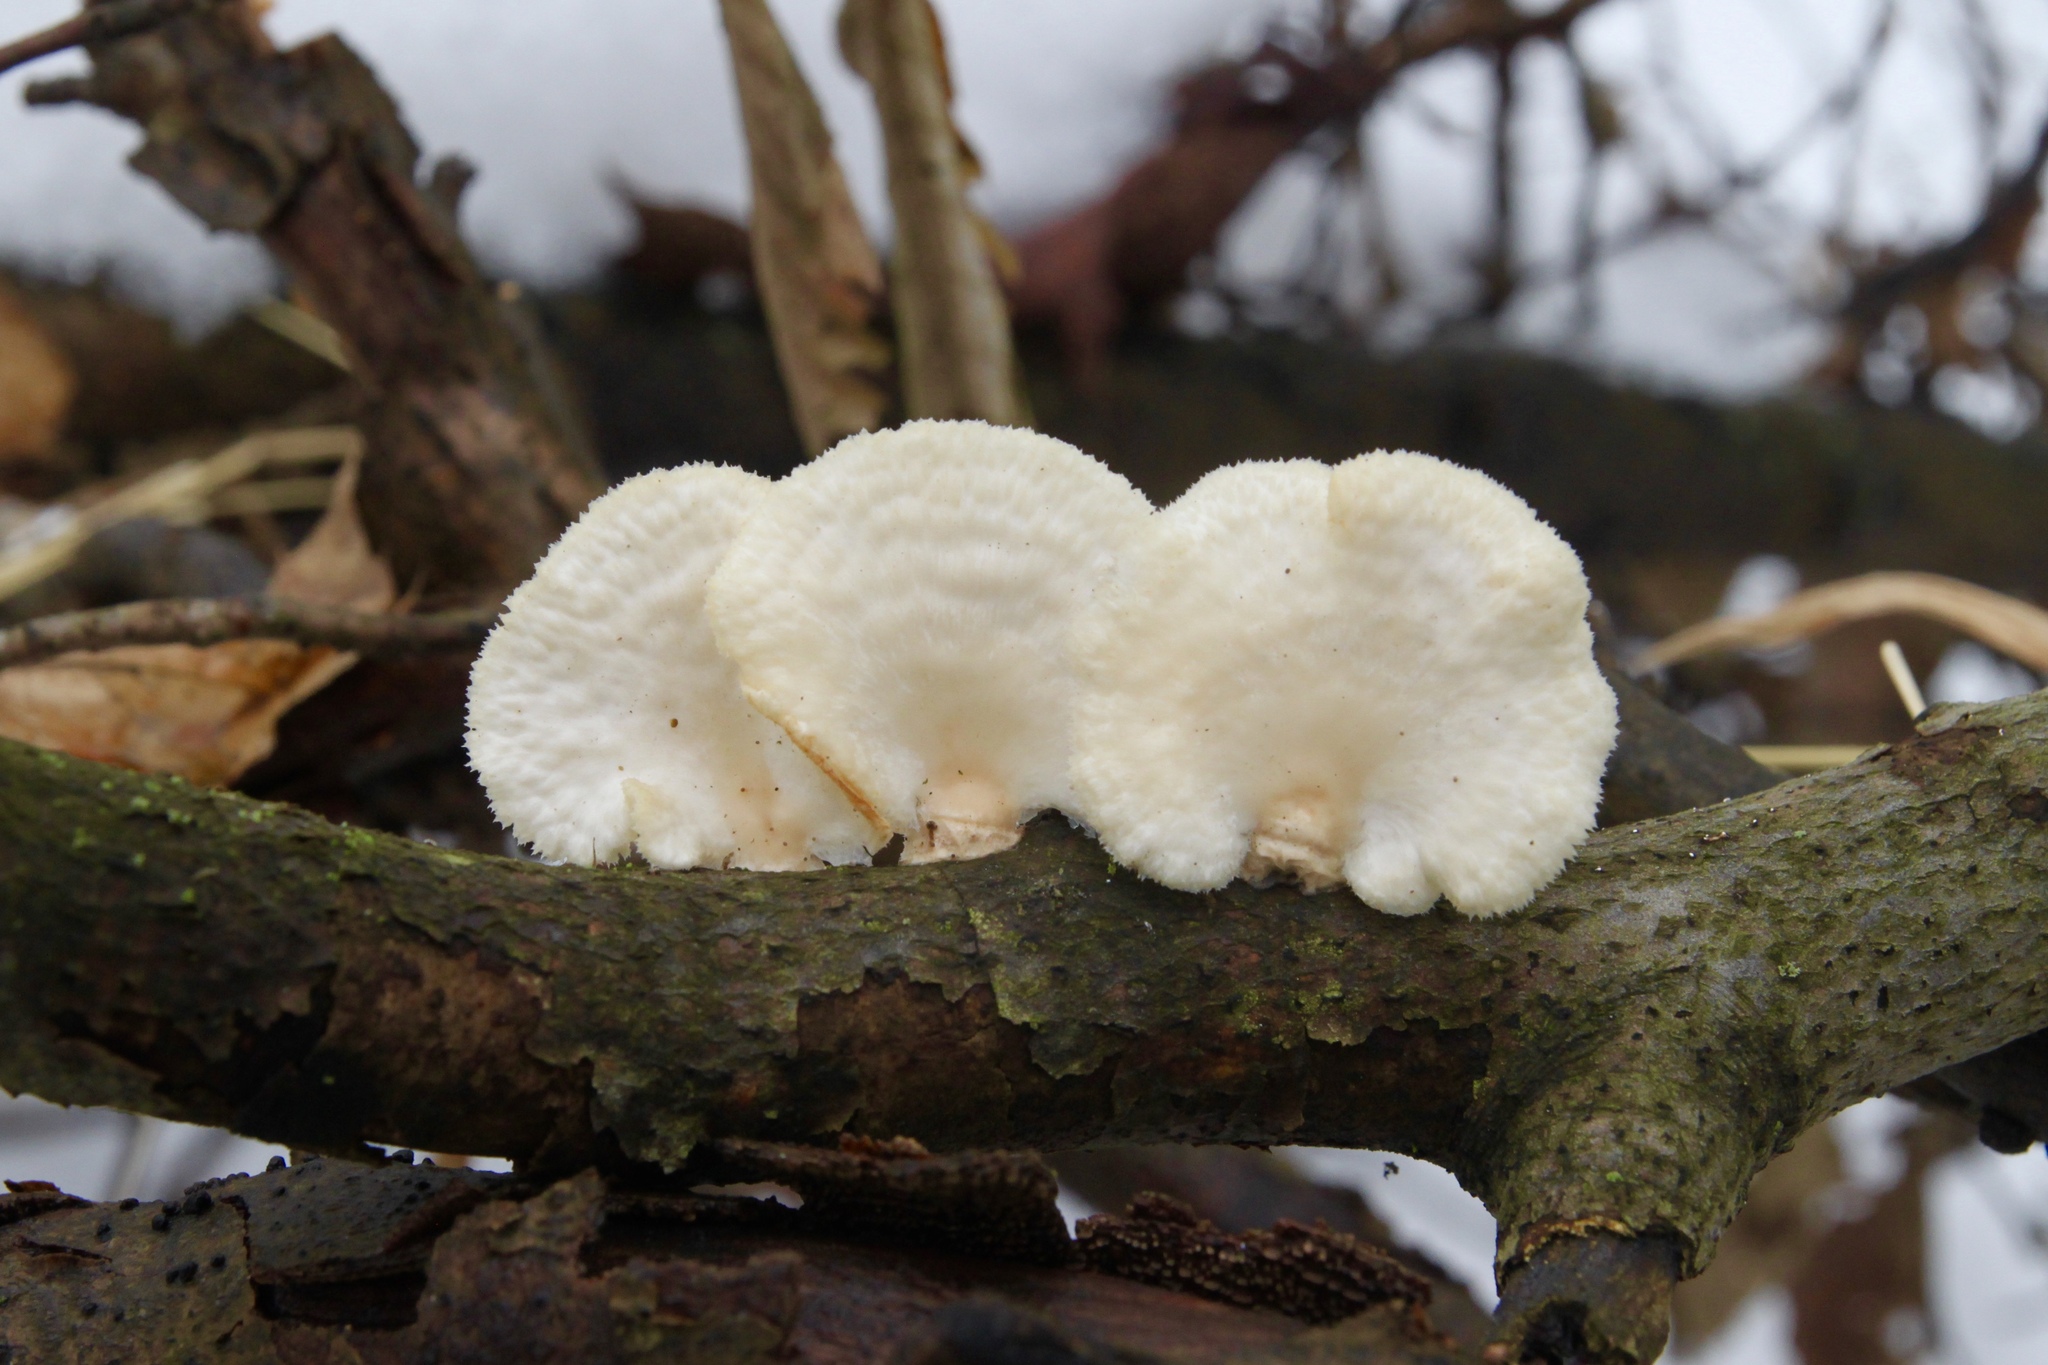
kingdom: Fungi
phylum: Basidiomycota
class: Agaricomycetes
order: Polyporales
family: Polyporaceae
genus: Neofavolus
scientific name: Neofavolus alveolaris
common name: Hexagonal-pored polypore
